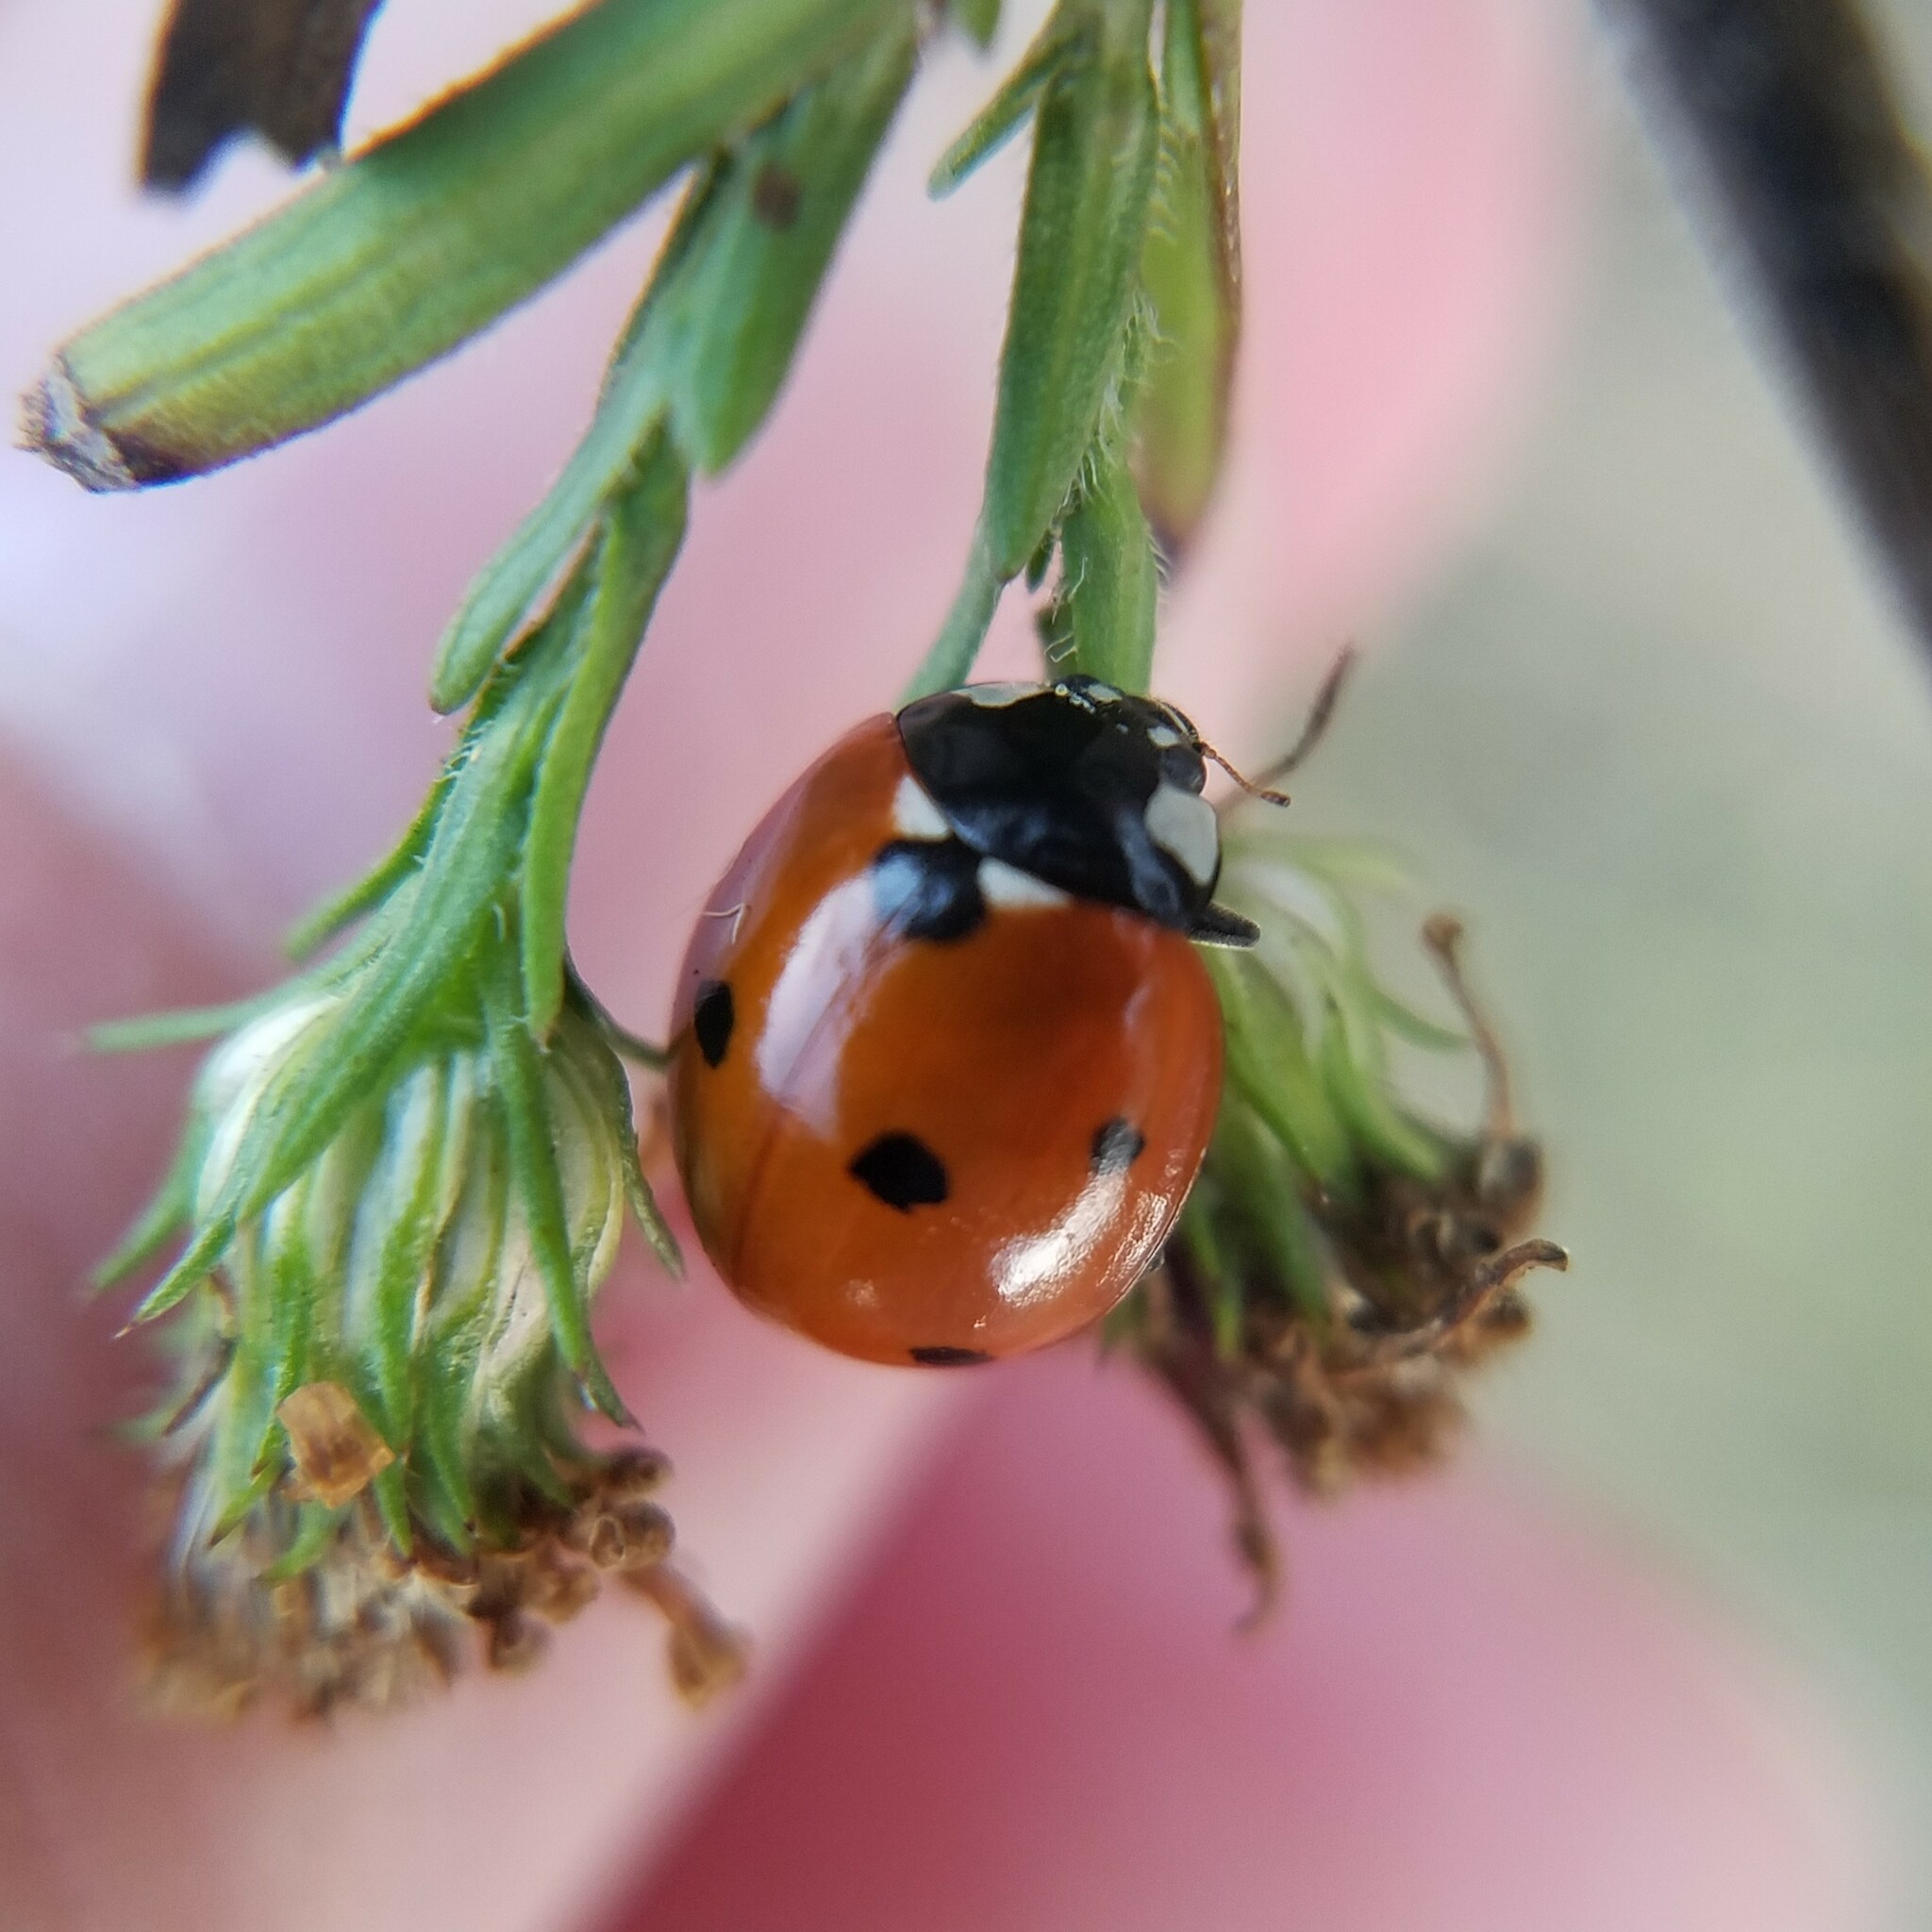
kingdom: Animalia
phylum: Arthropoda
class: Insecta
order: Coleoptera
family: Coccinellidae
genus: Coccinella
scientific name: Coccinella septempunctata
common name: Sevenspotted lady beetle
